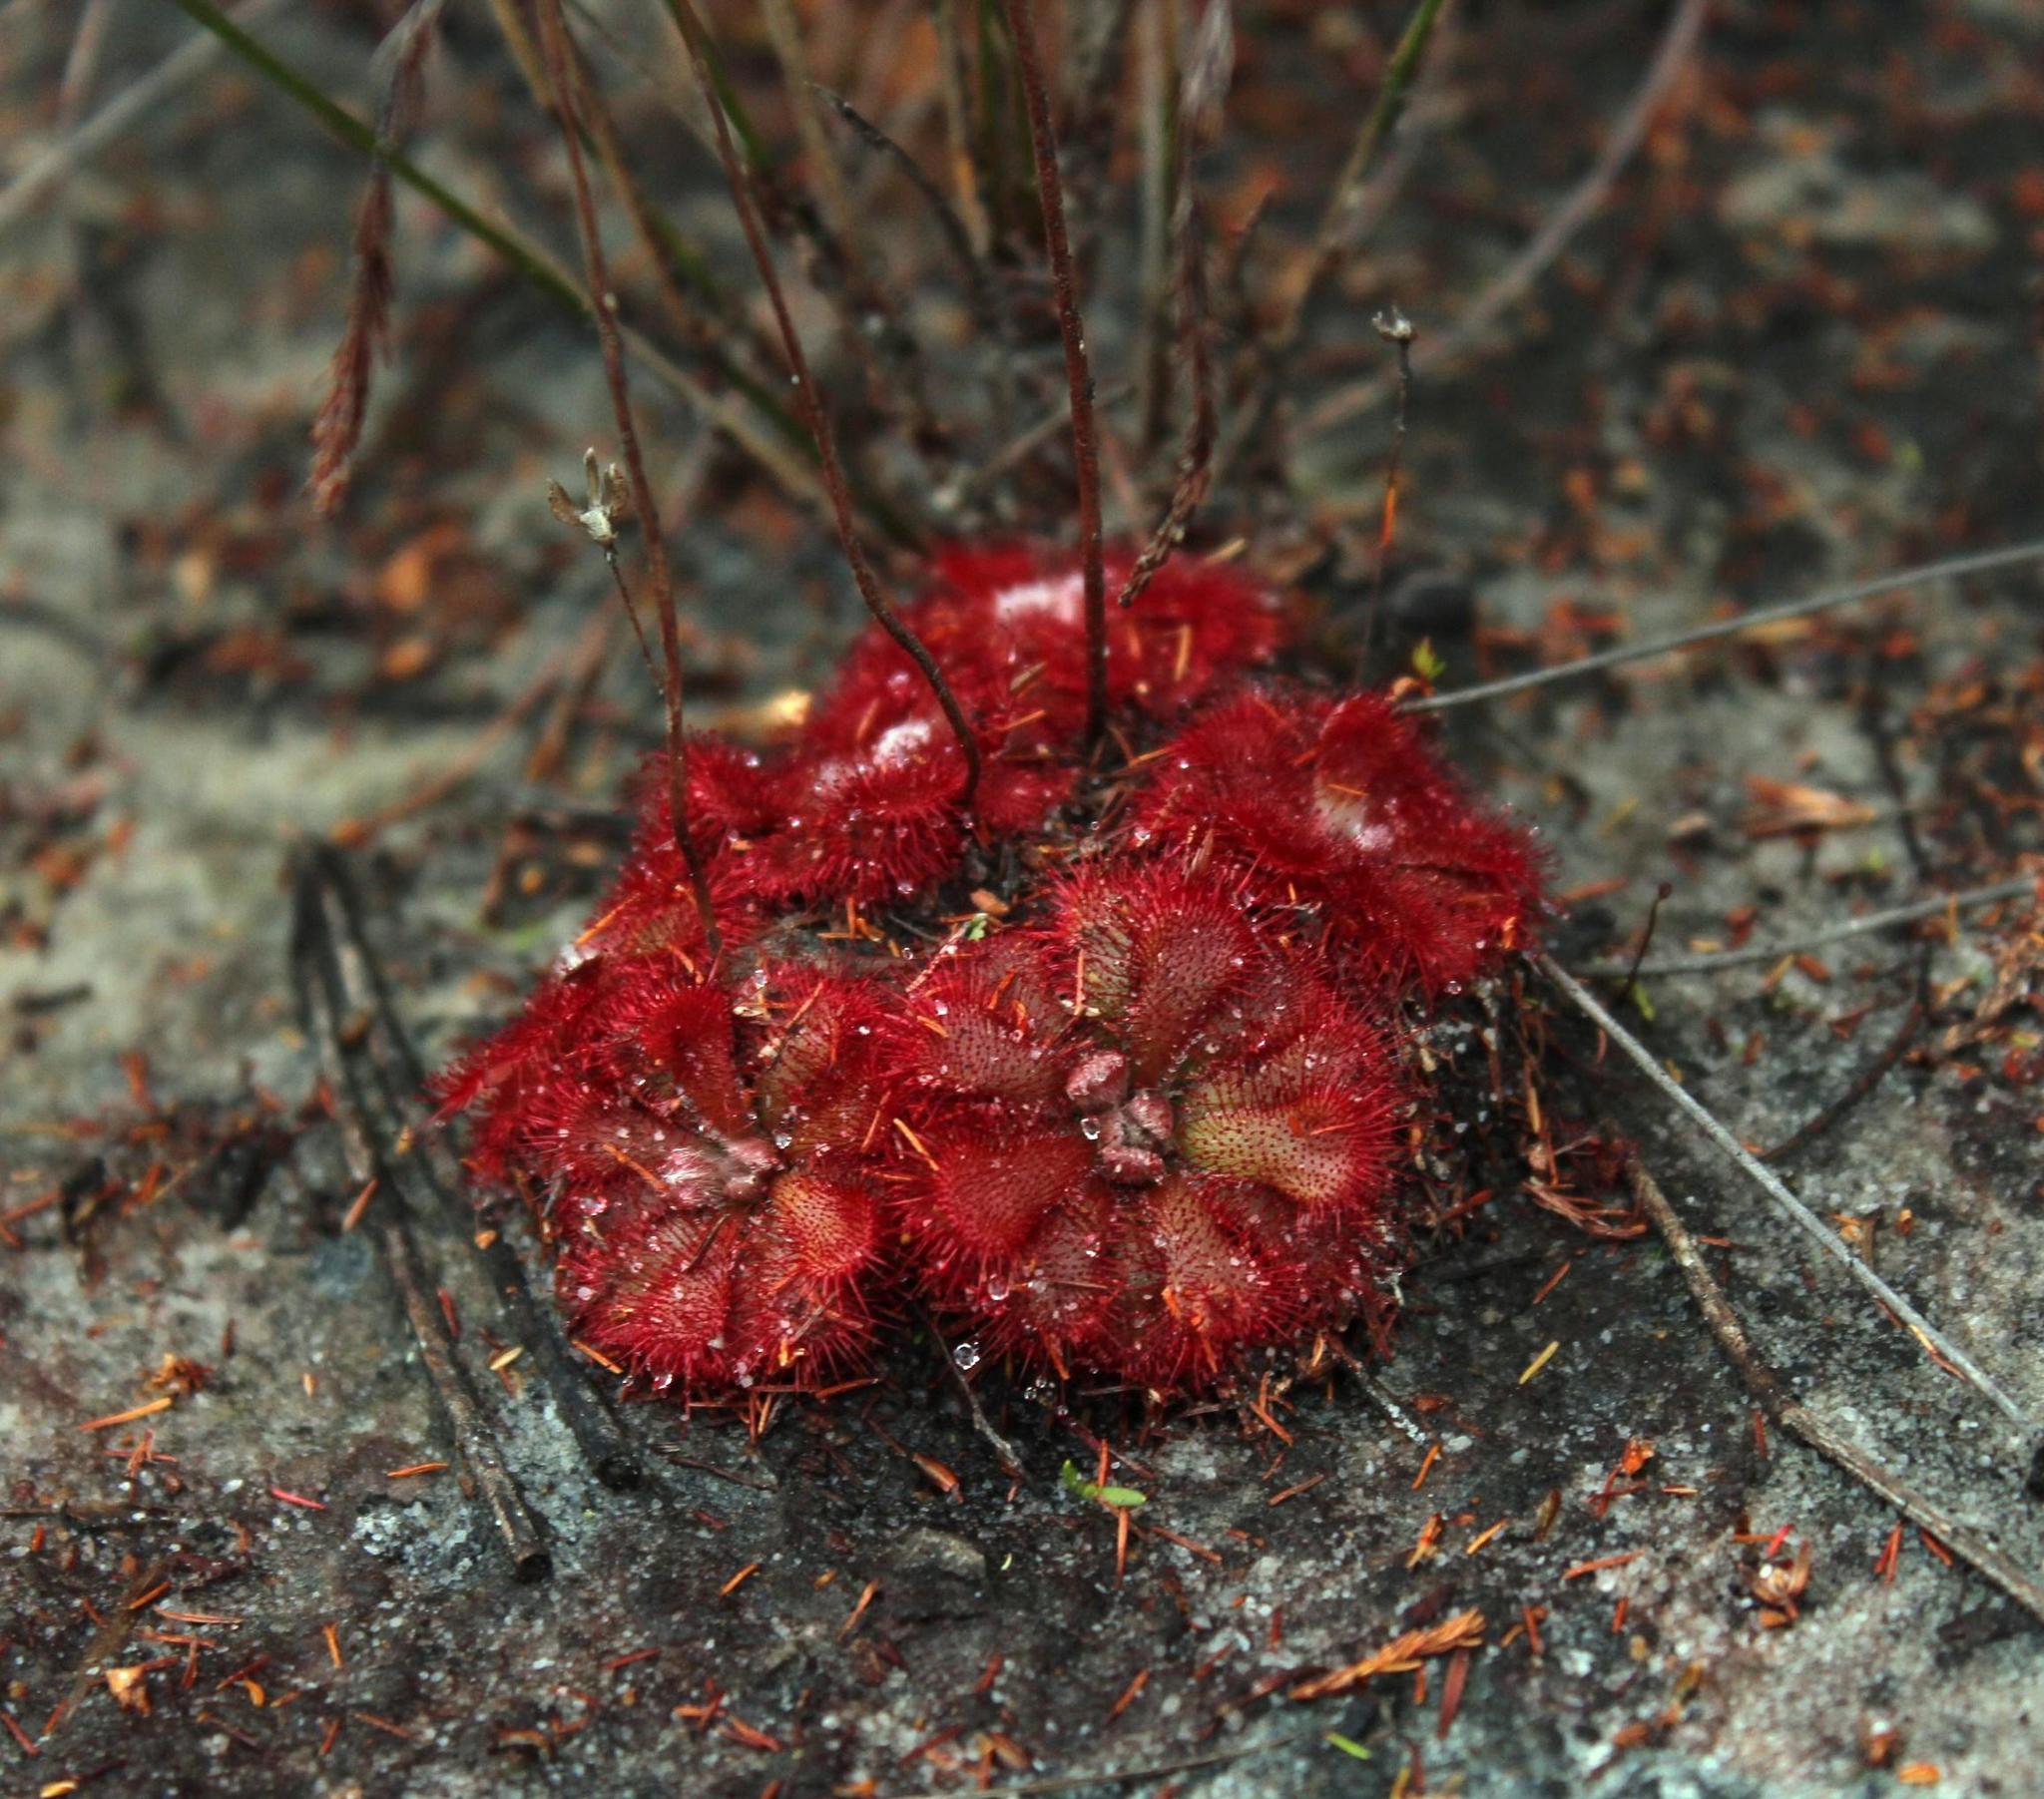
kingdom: Plantae
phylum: Tracheophyta
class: Magnoliopsida
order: Caryophyllales
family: Droseraceae
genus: Drosera
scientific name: Drosera aliciae
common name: Alice sundew
